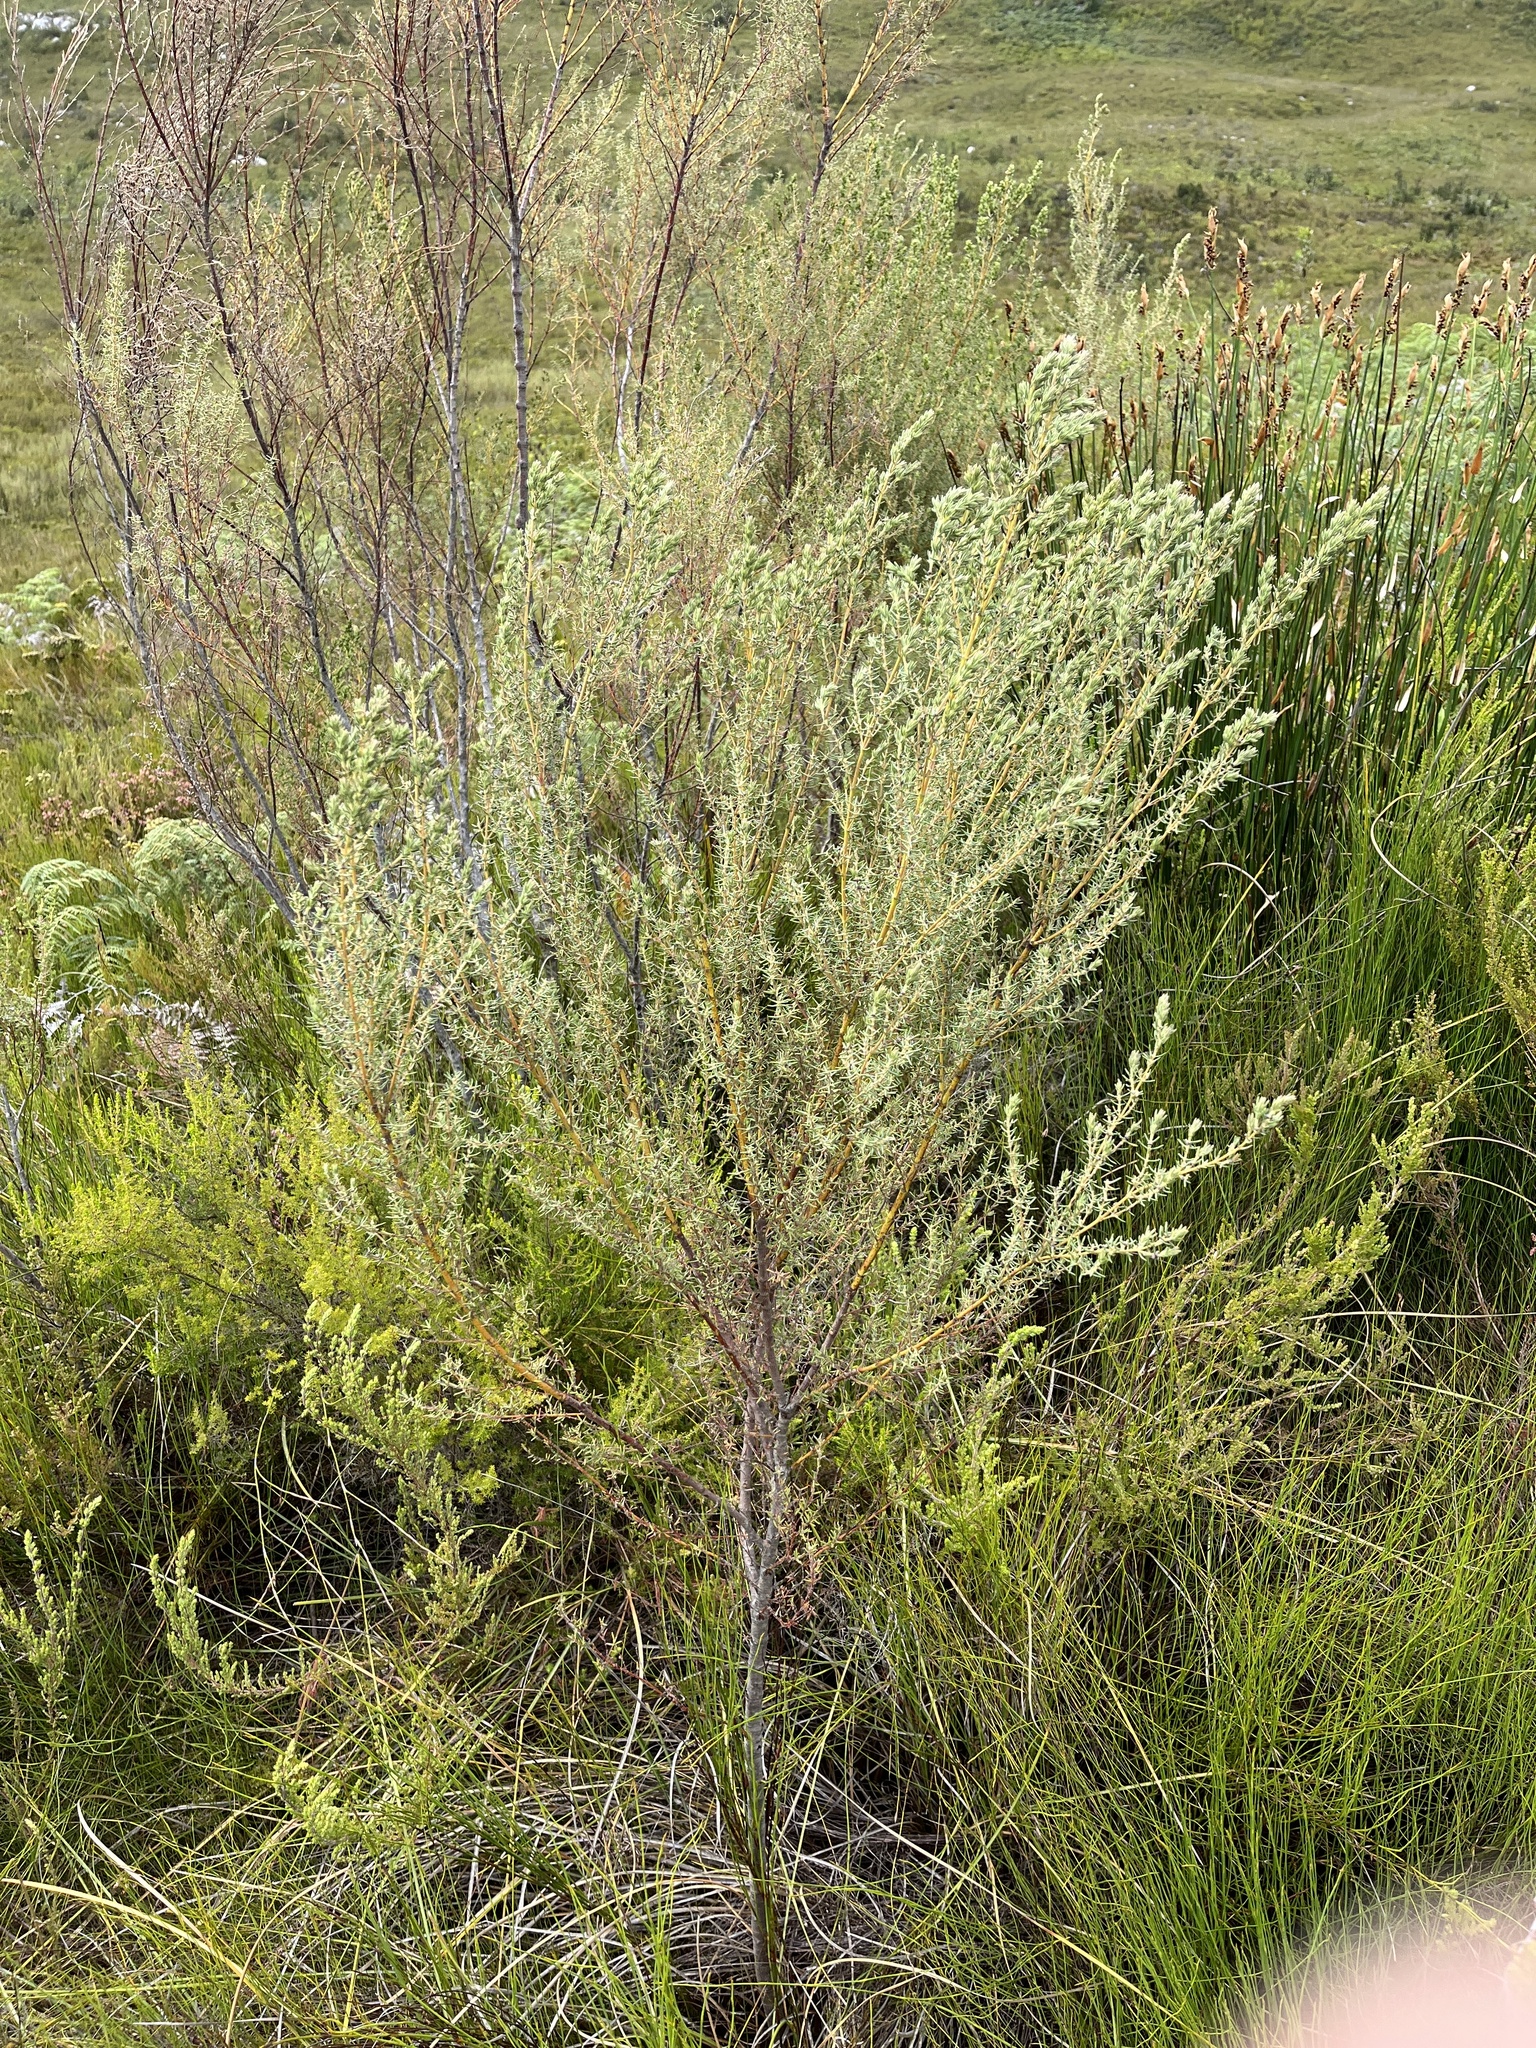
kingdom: Plantae
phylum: Tracheophyta
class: Magnoliopsida
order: Cornales
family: Grubbiaceae
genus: Grubbia
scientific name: Grubbia rosmarinifolia
